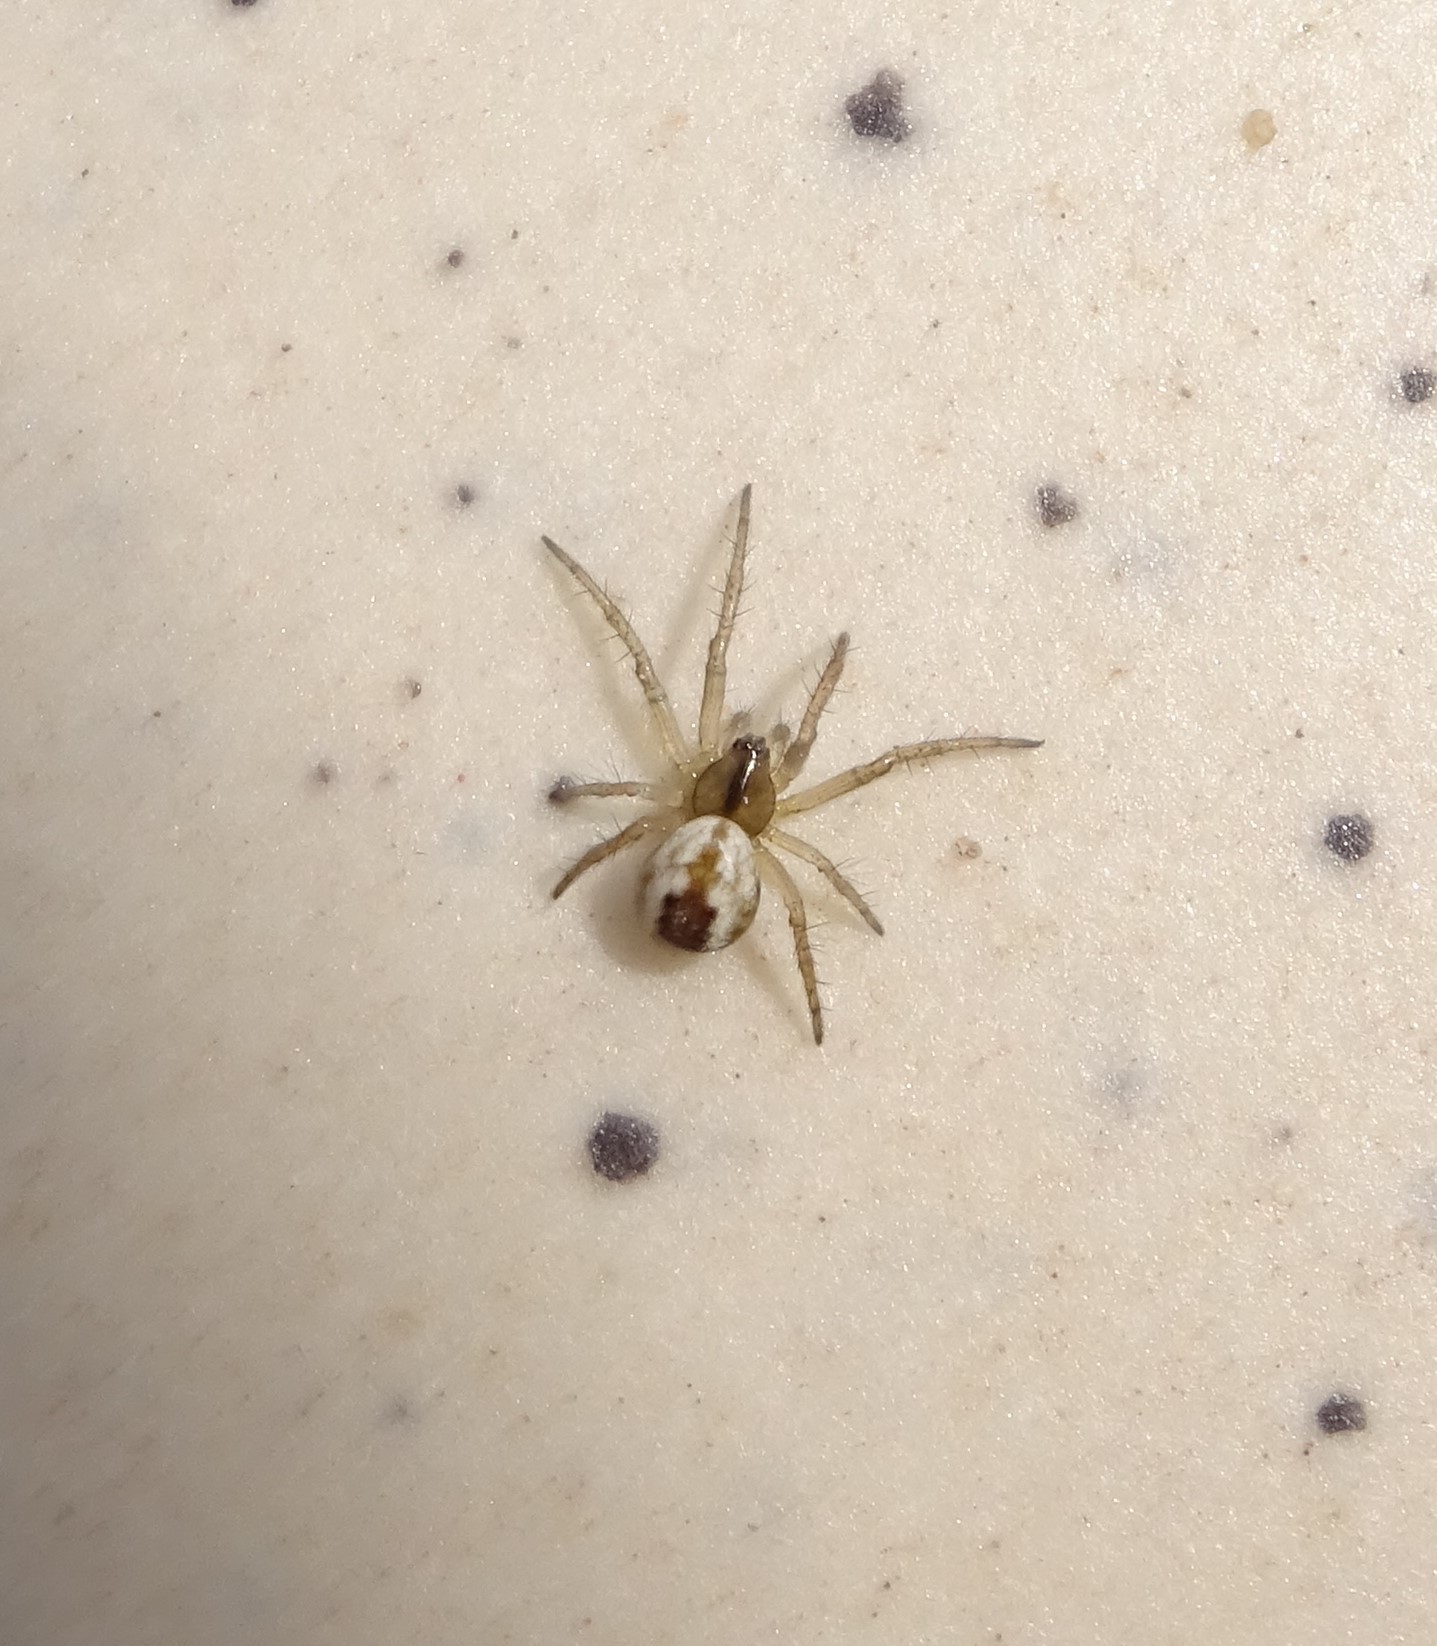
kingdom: Animalia
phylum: Arthropoda
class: Arachnida
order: Araneae
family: Araneidae
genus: Mangora
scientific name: Mangora acalypha
